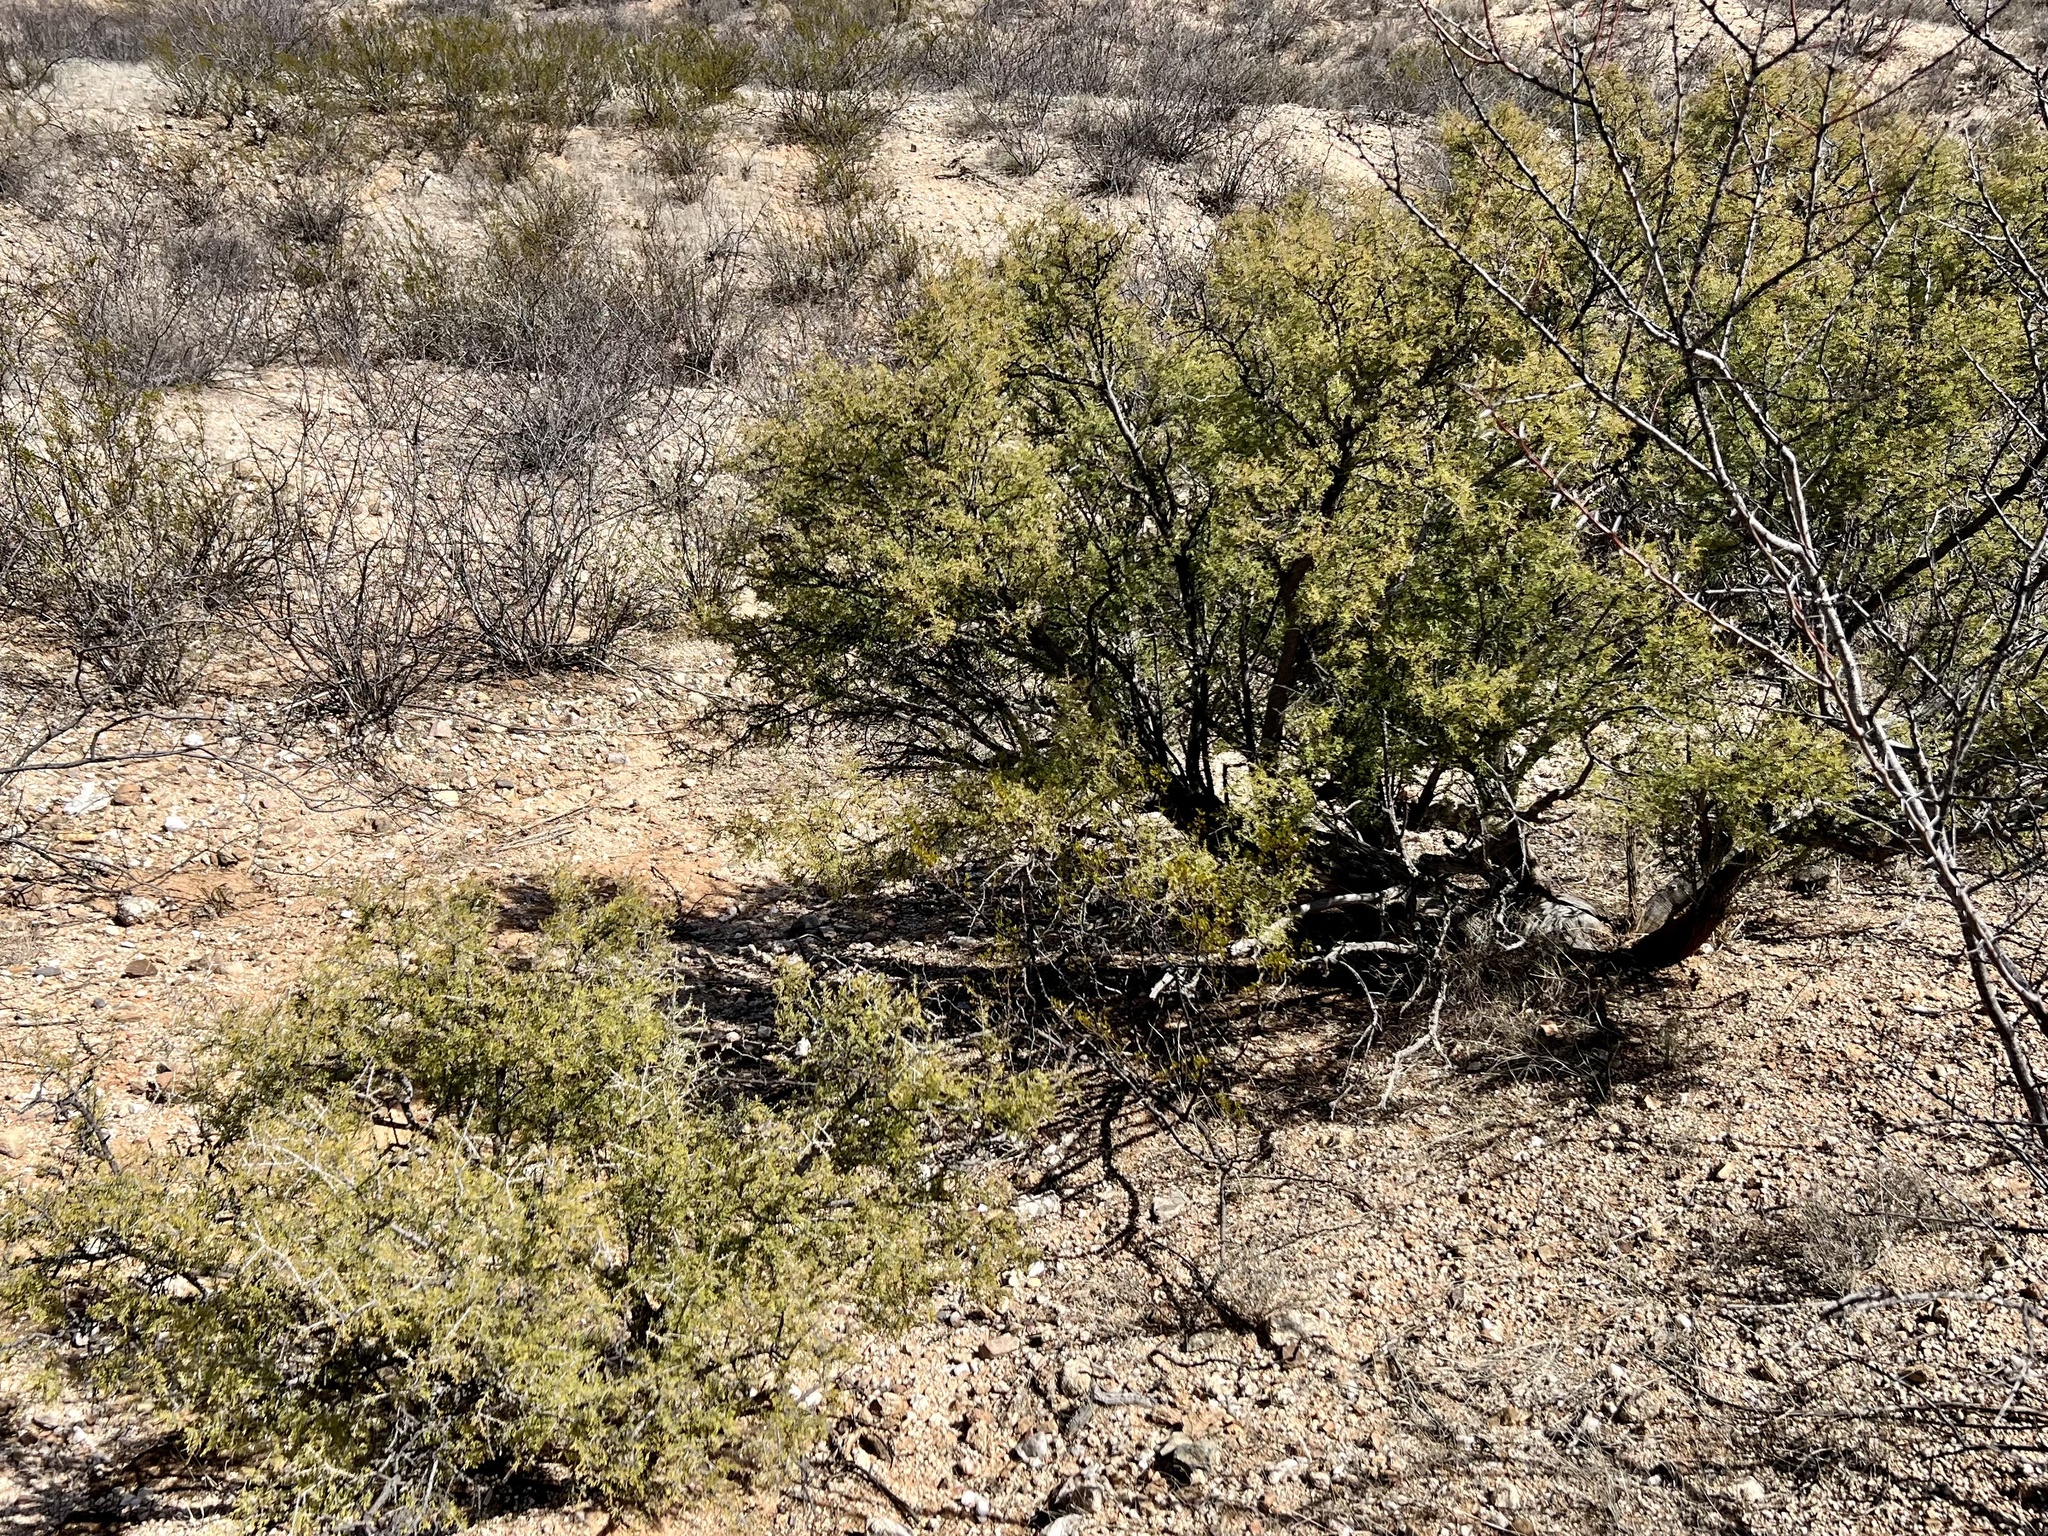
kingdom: Plantae
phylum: Tracheophyta
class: Magnoliopsida
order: Rosales
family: Rhamnaceae
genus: Condalia
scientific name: Condalia warnockii
